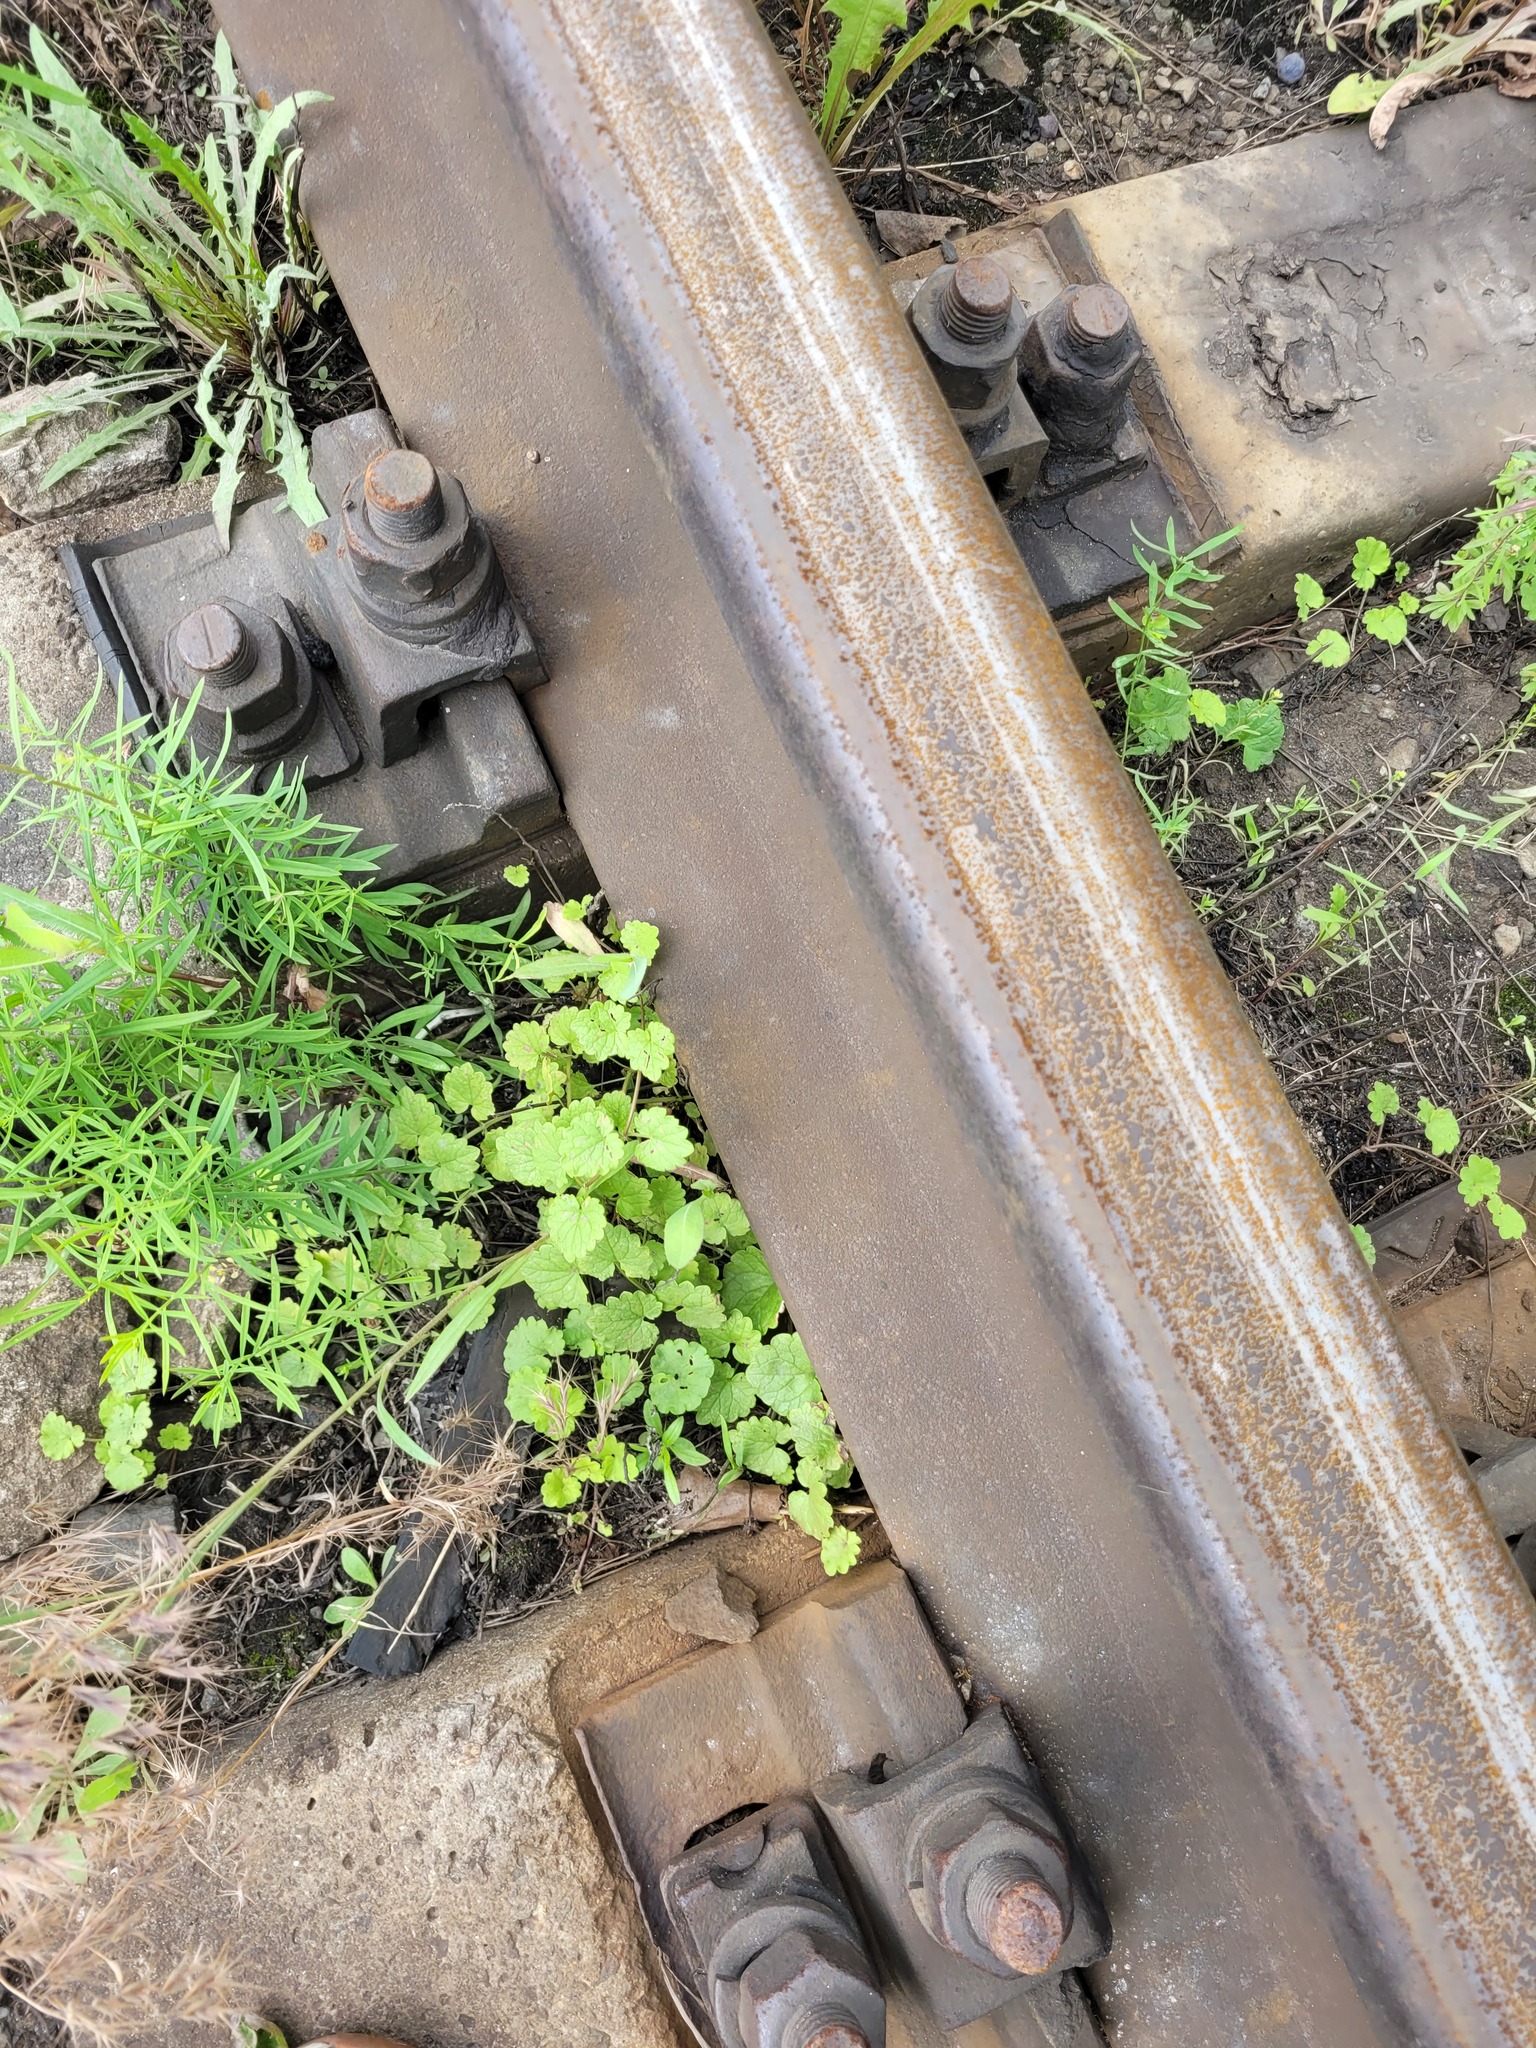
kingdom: Plantae
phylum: Tracheophyta
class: Magnoliopsida
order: Lamiales
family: Lamiaceae
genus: Glechoma
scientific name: Glechoma hederacea
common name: Ground ivy
